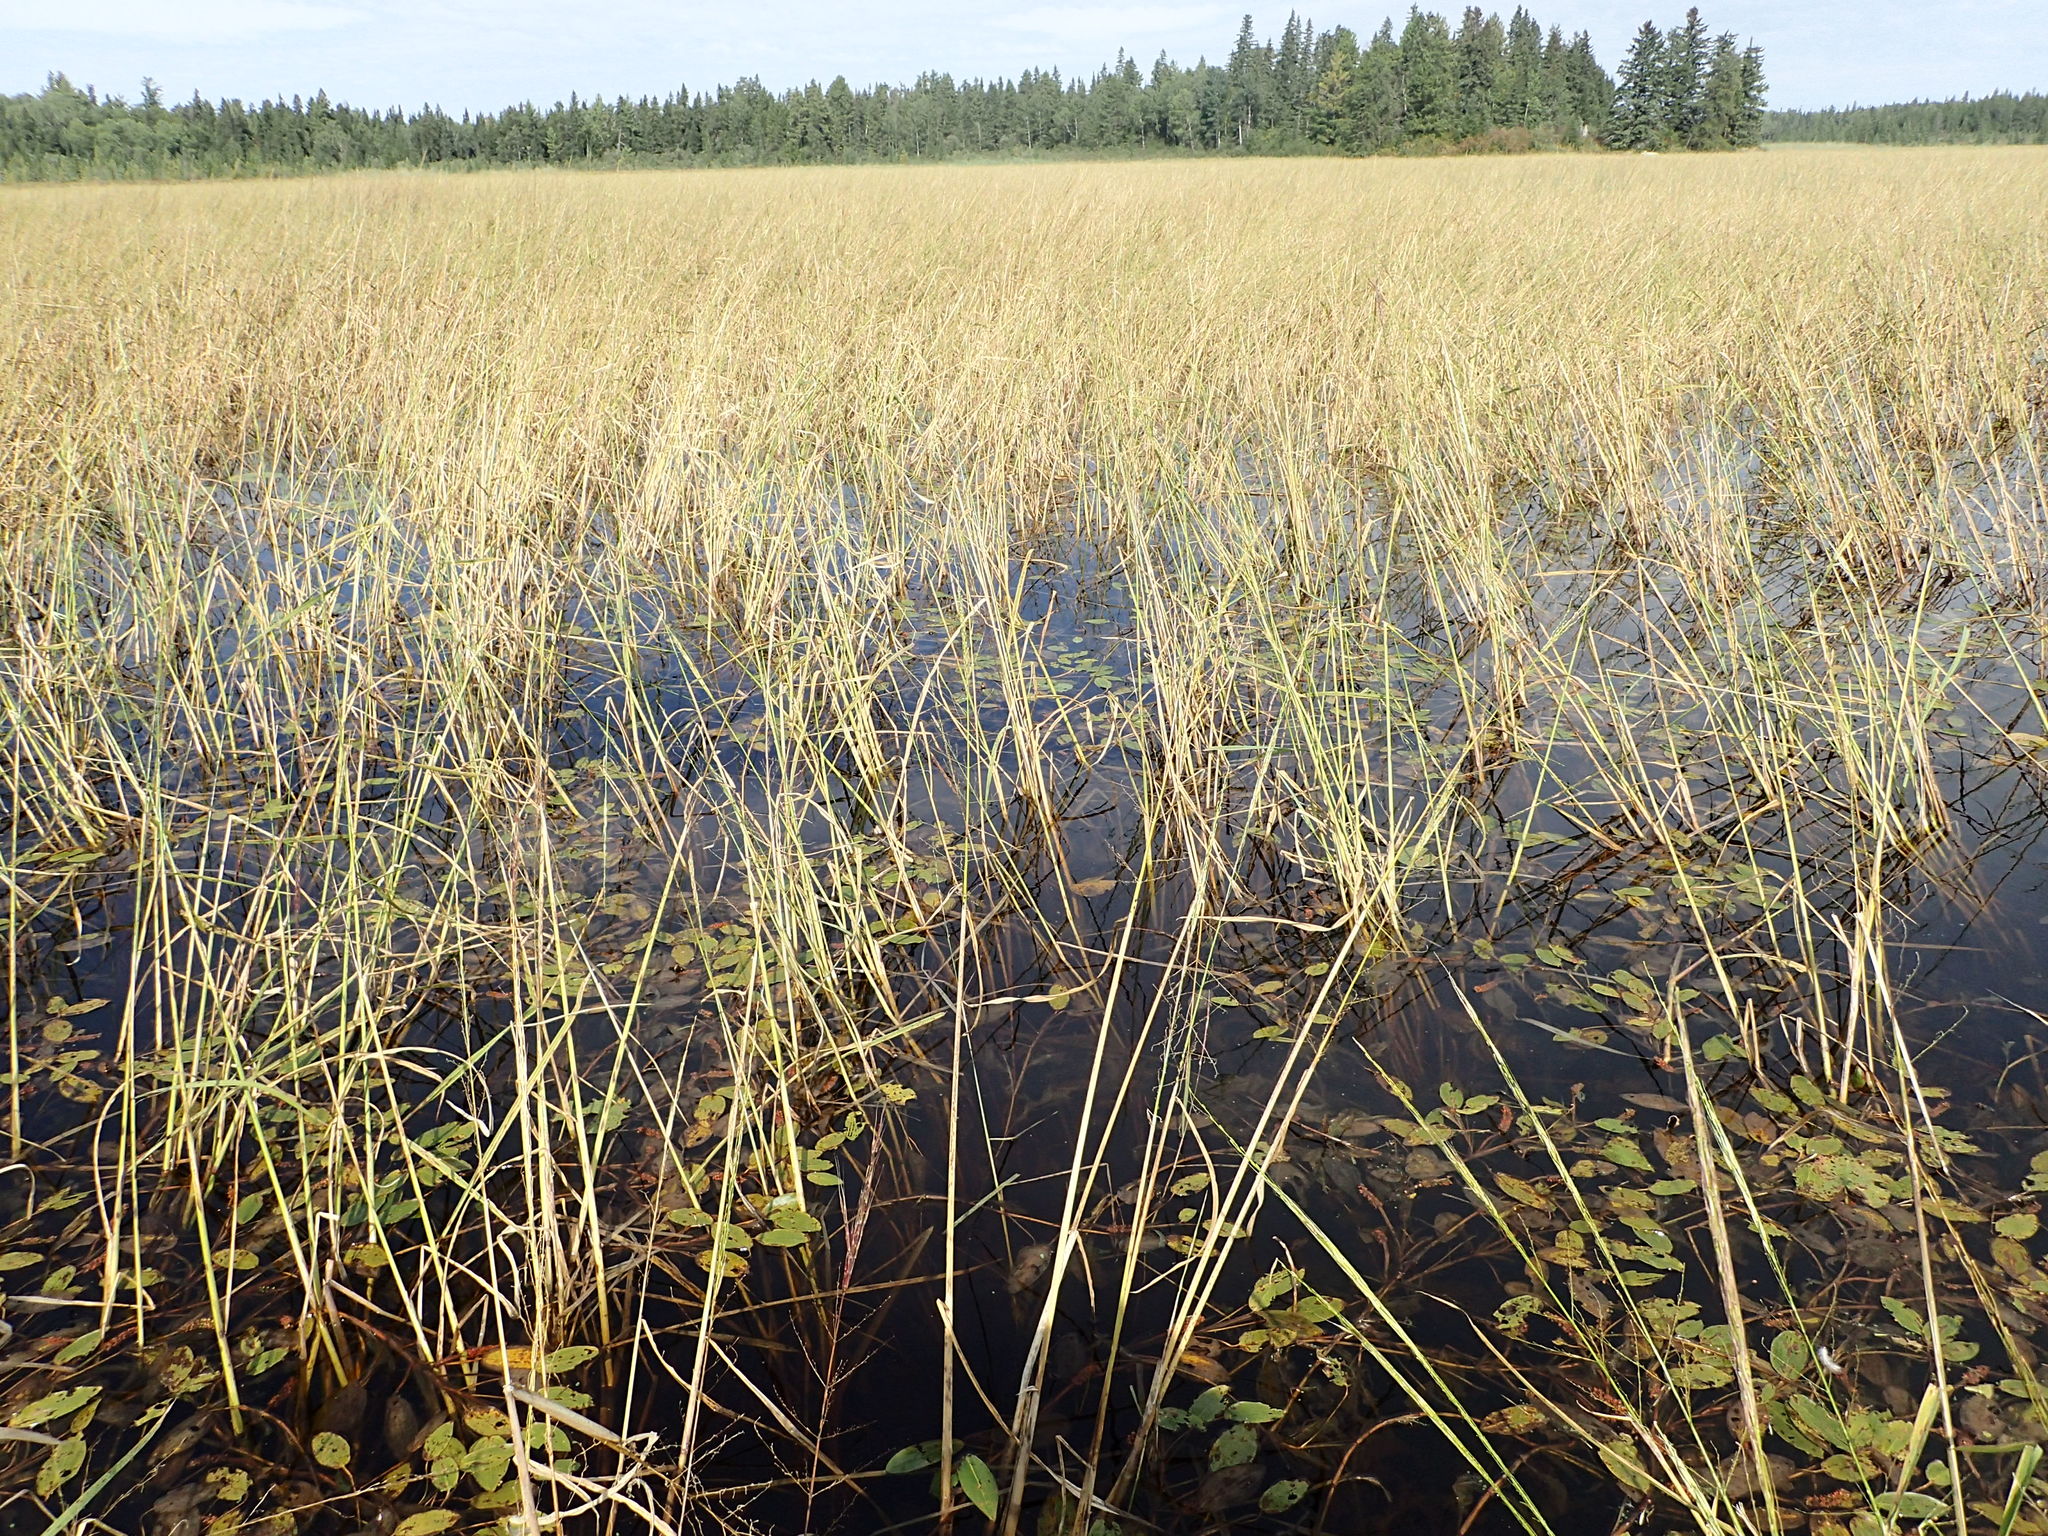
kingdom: Plantae
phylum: Tracheophyta
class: Liliopsida
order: Poales
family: Poaceae
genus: Zizania
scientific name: Zizania palustris
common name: Northern wild rice
